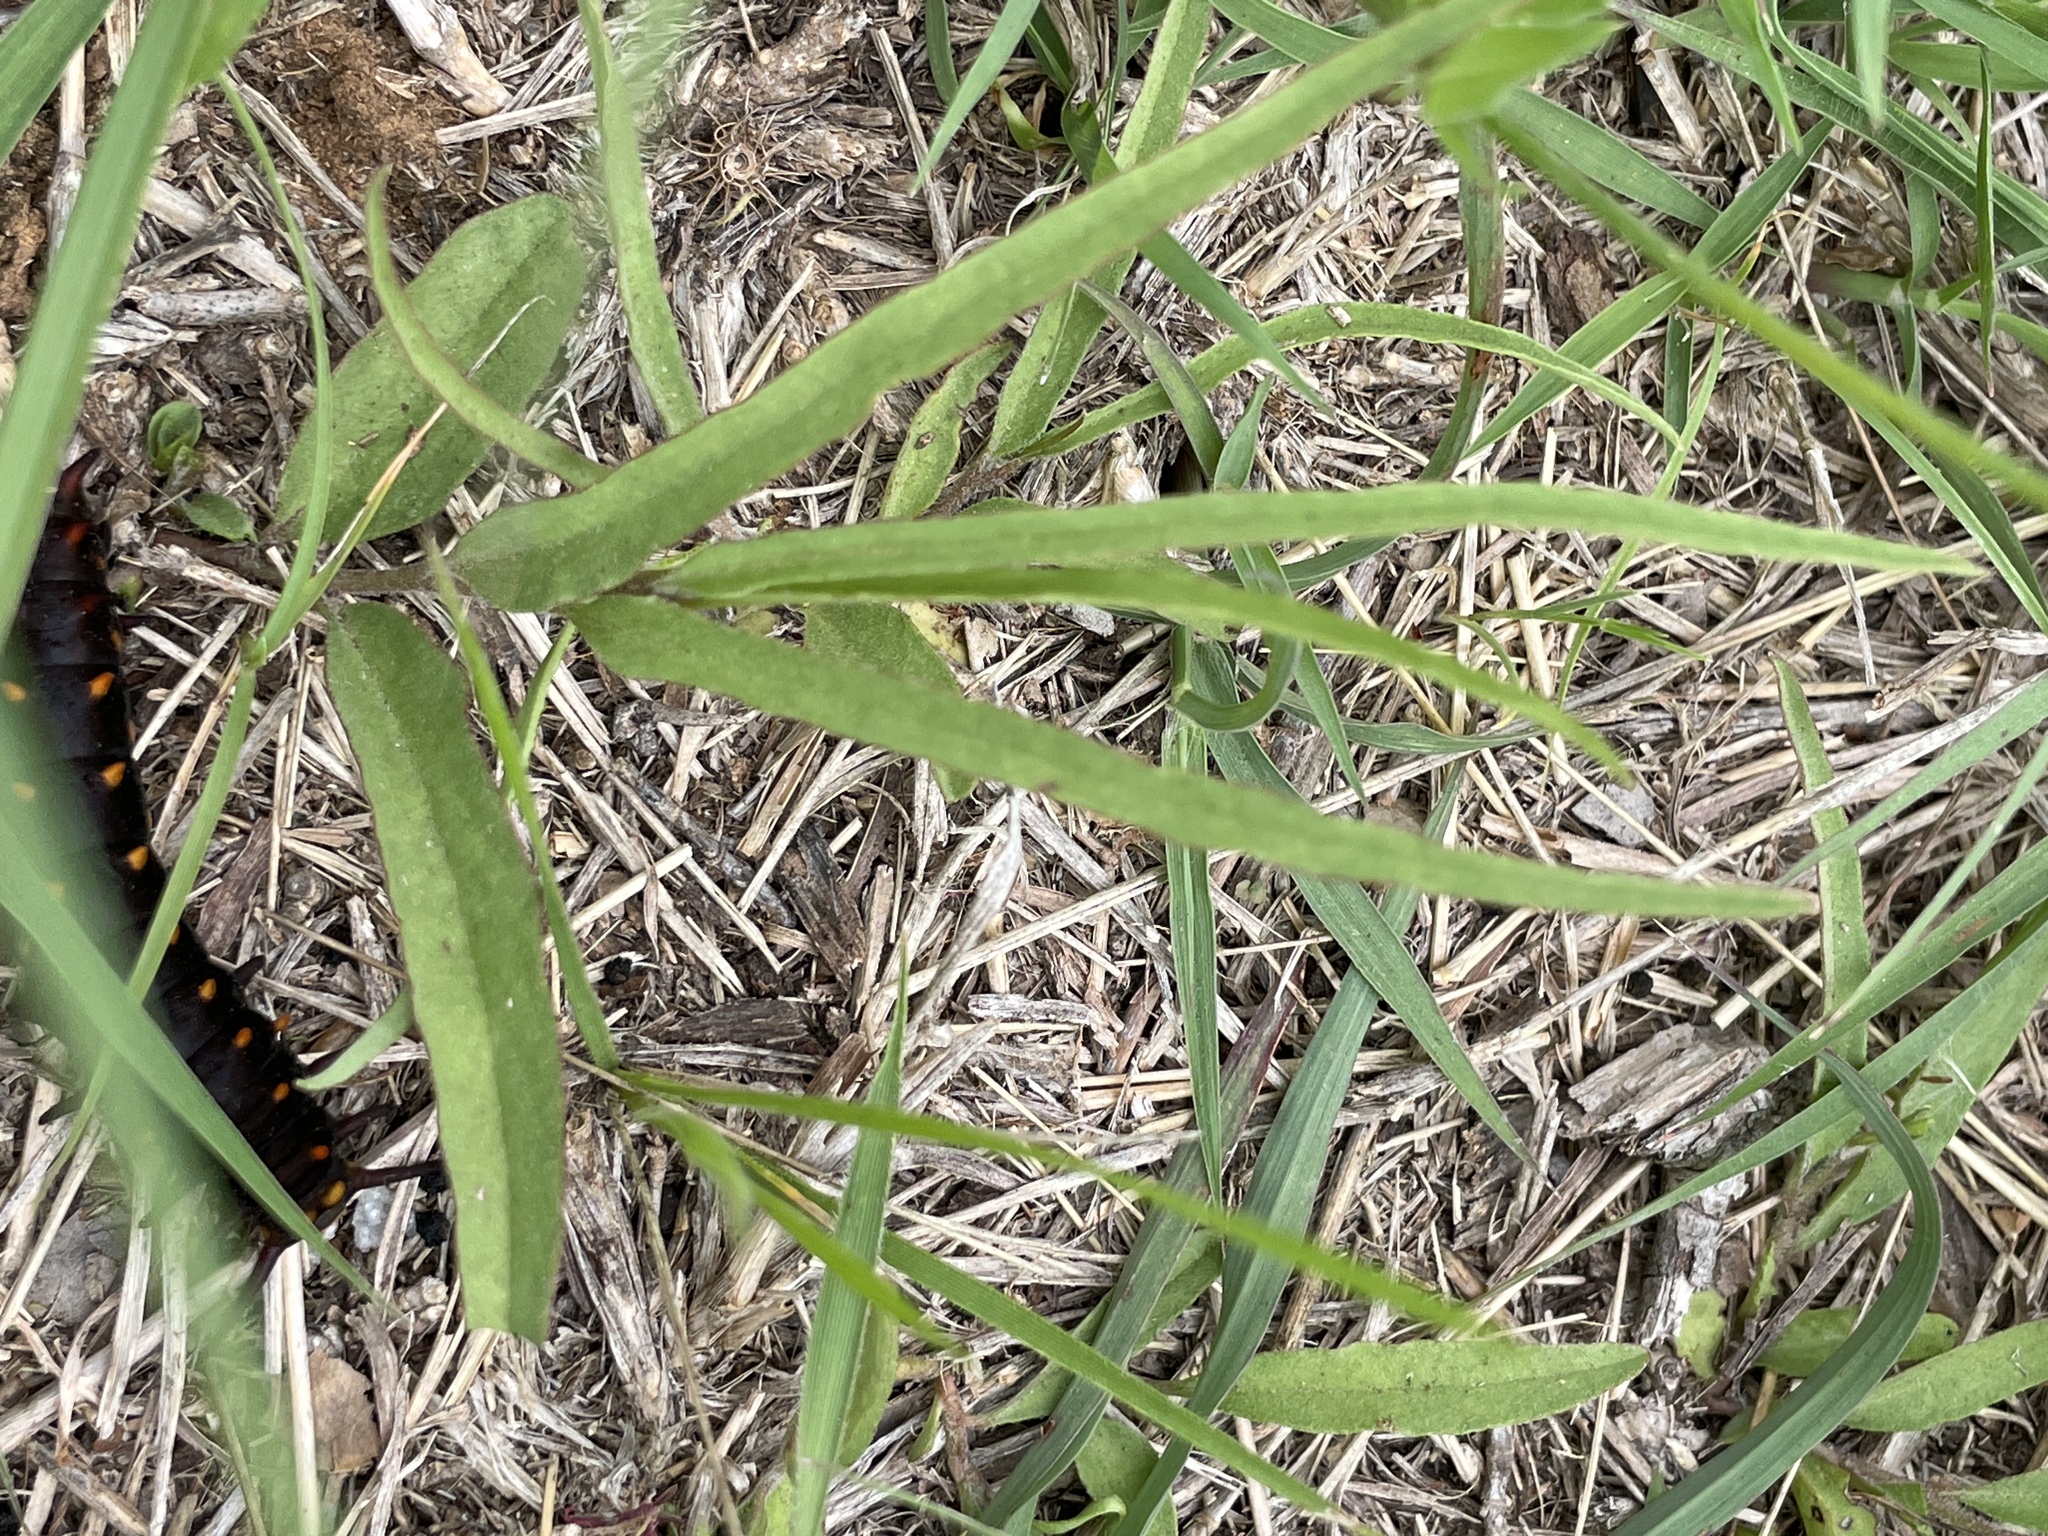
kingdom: Plantae
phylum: Tracheophyta
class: Magnoliopsida
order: Piperales
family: Aristolochiaceae
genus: Aristolochia
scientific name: Aristolochia erecta
